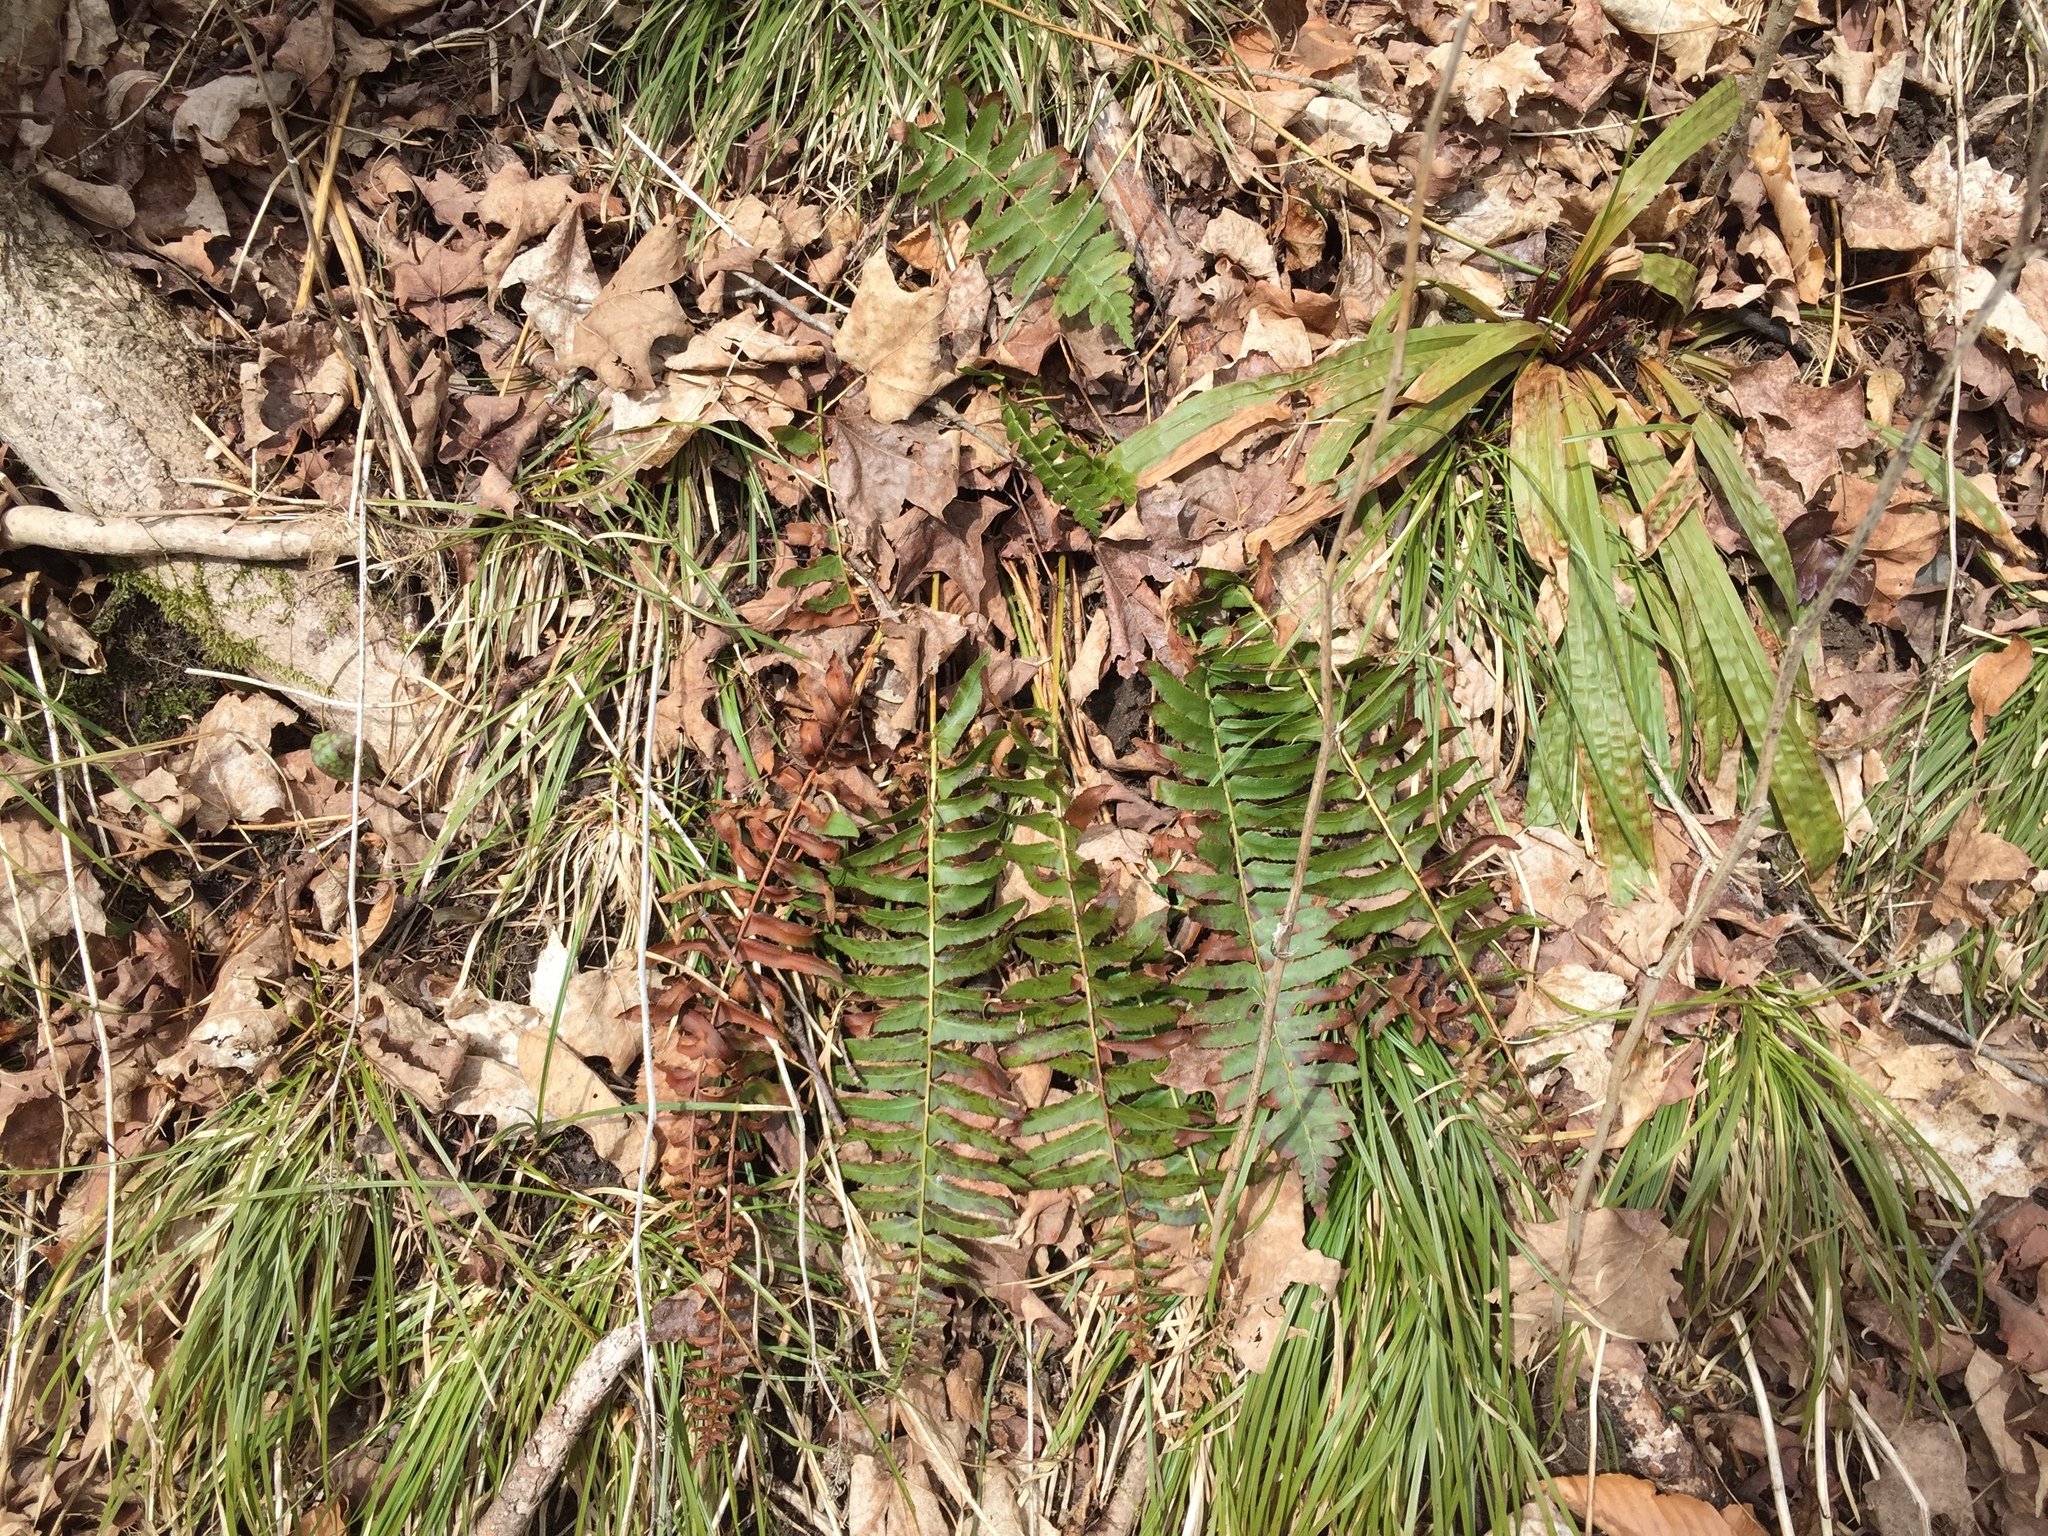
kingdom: Plantae
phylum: Tracheophyta
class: Polypodiopsida
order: Polypodiales
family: Dryopteridaceae
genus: Polystichum
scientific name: Polystichum acrostichoides
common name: Christmas fern
